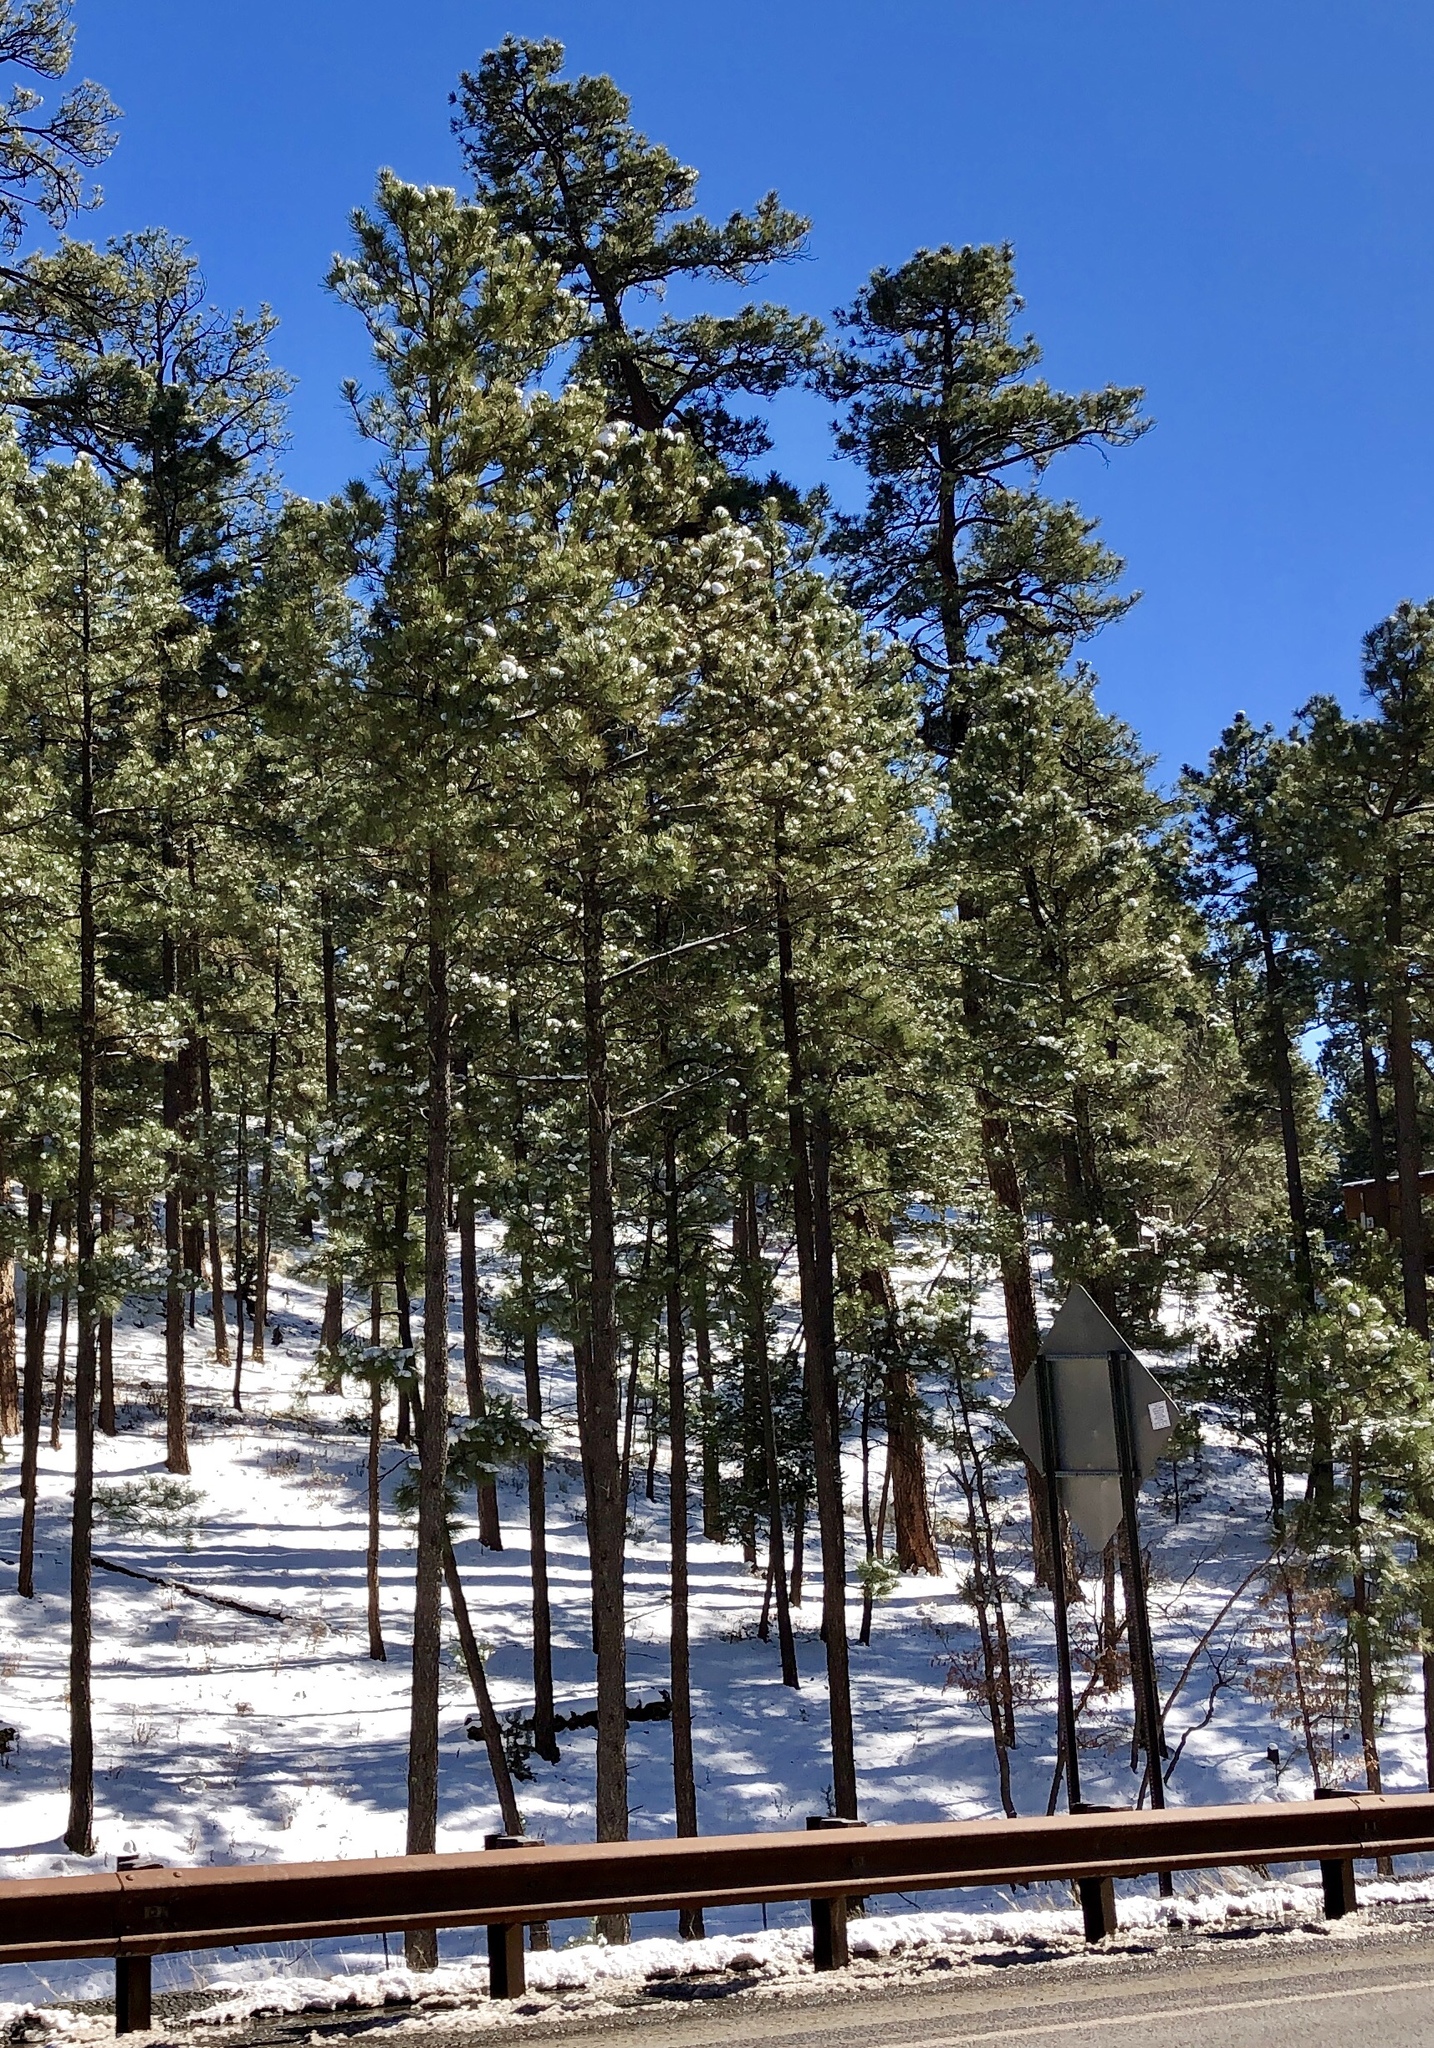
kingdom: Plantae
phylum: Tracheophyta
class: Pinopsida
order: Pinales
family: Pinaceae
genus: Pinus
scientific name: Pinus ponderosa
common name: Western yellow-pine
